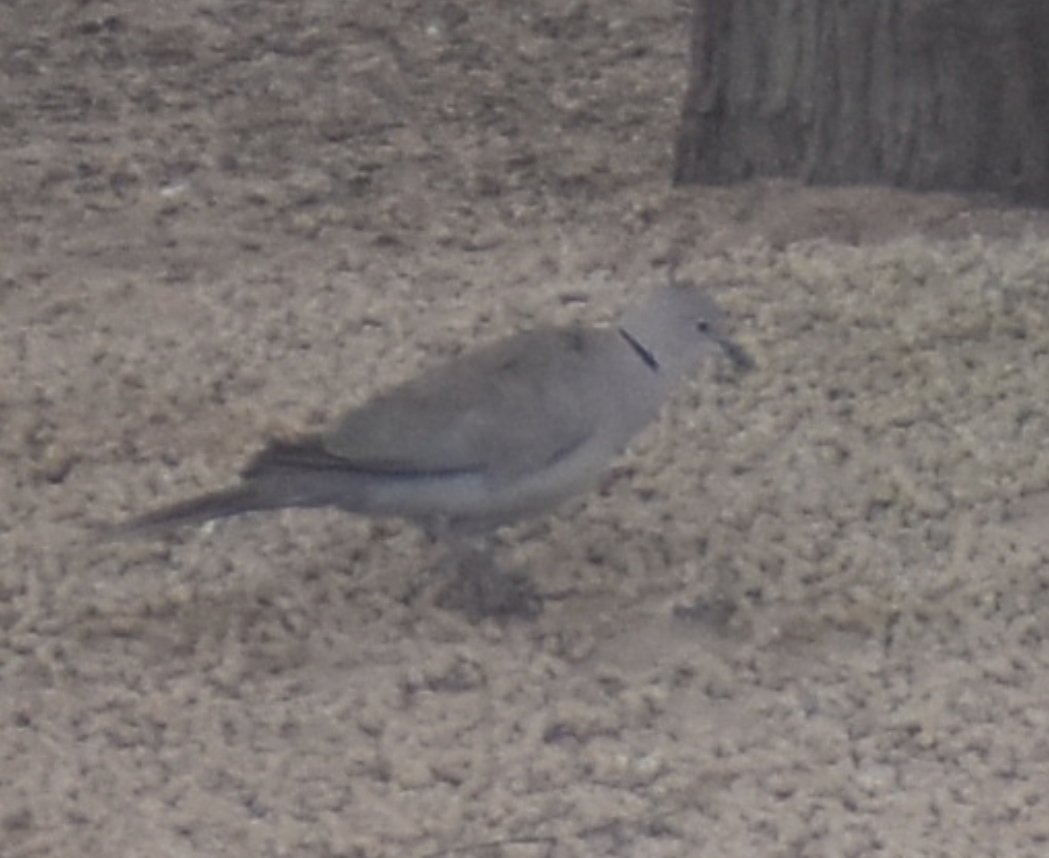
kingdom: Animalia
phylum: Chordata
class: Aves
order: Columbiformes
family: Columbidae
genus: Streptopelia
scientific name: Streptopelia decaocto
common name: Eurasian collared dove
